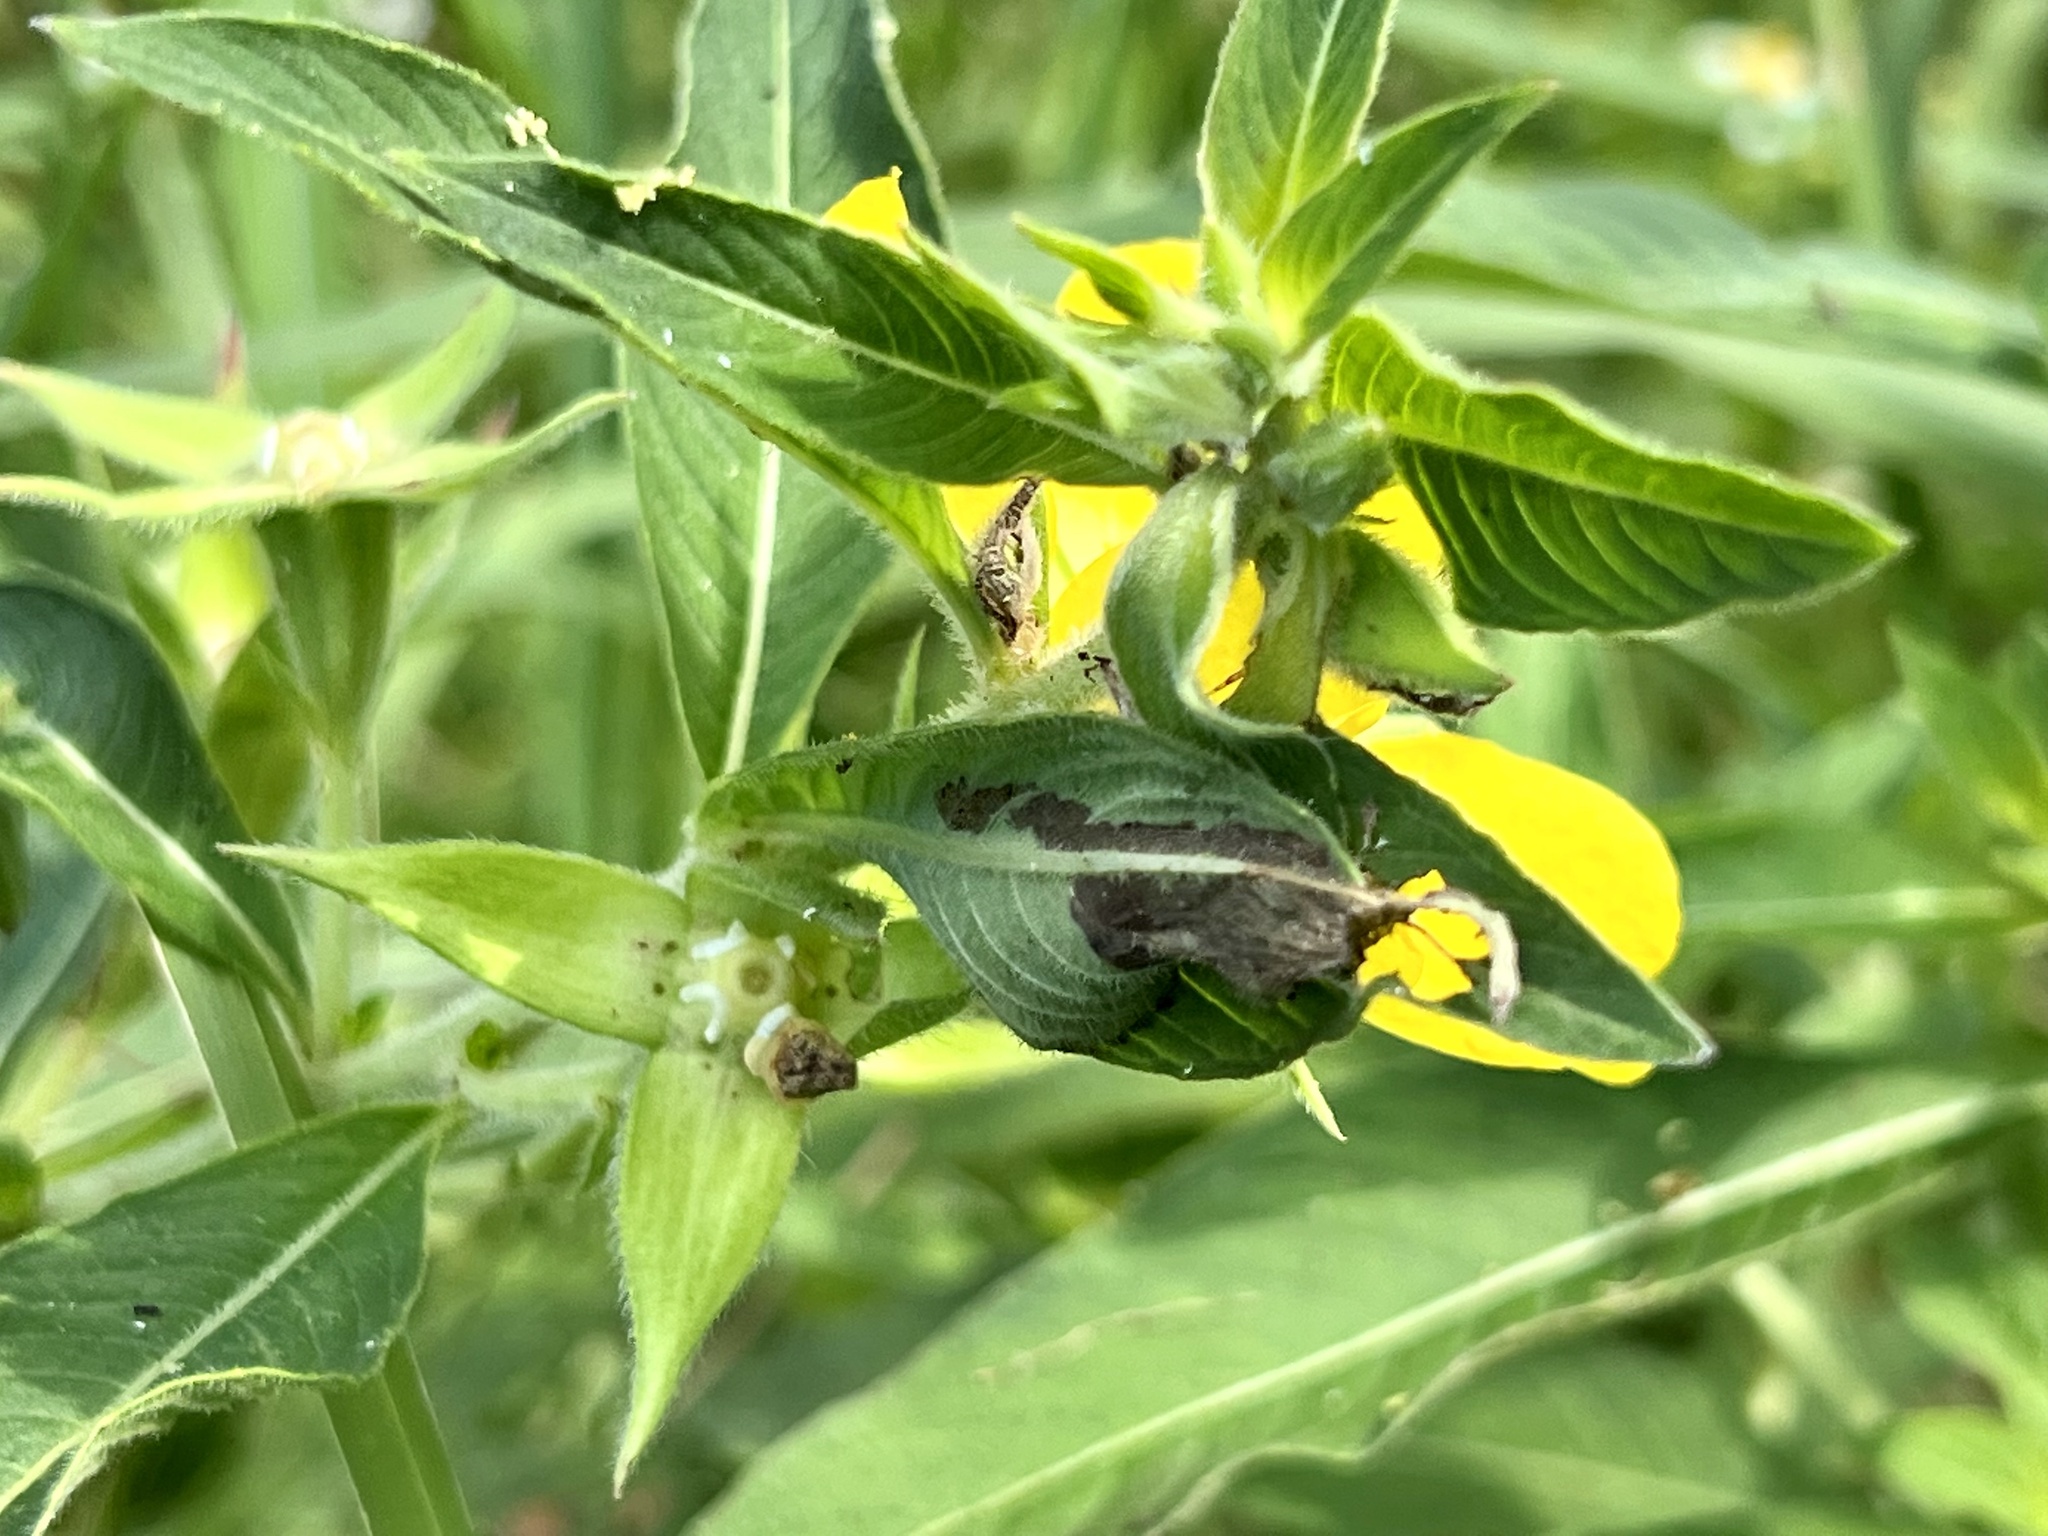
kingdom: Plantae
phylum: Tracheophyta
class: Magnoliopsida
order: Myrtales
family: Onagraceae
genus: Ludwigia
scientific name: Ludwigia peruviana
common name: Peruvian primrose-willow
